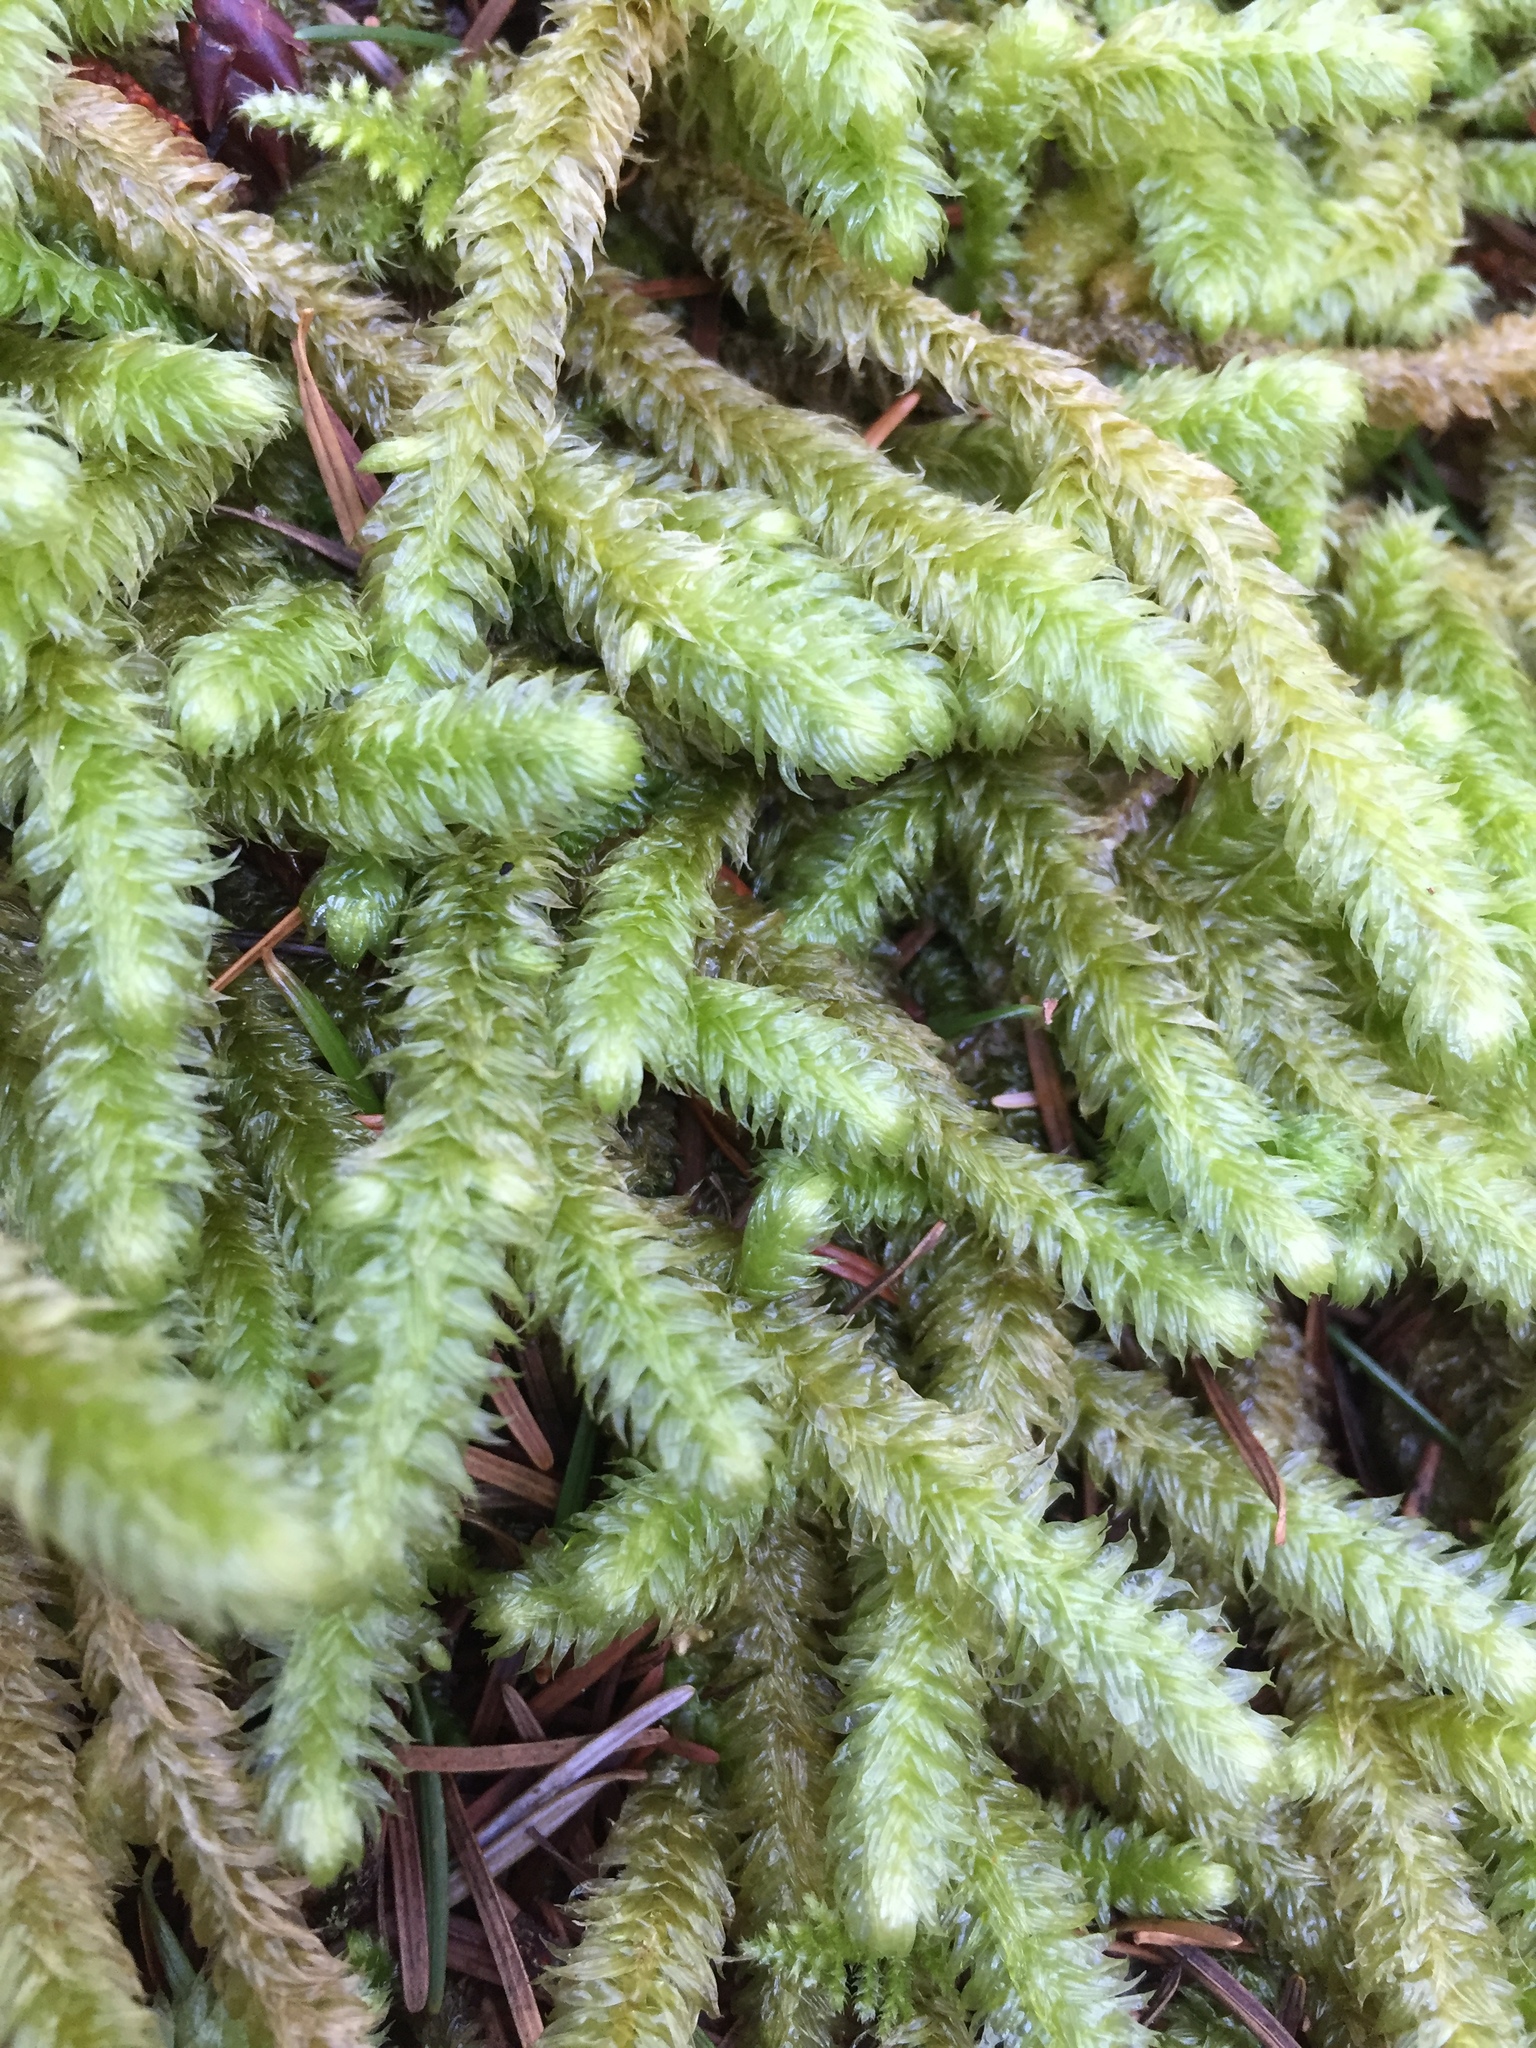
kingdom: Plantae
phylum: Bryophyta
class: Bryopsida
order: Hypnales
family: Hylocomiaceae
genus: Rhytidiopsis
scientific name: Rhytidiopsis robusta
